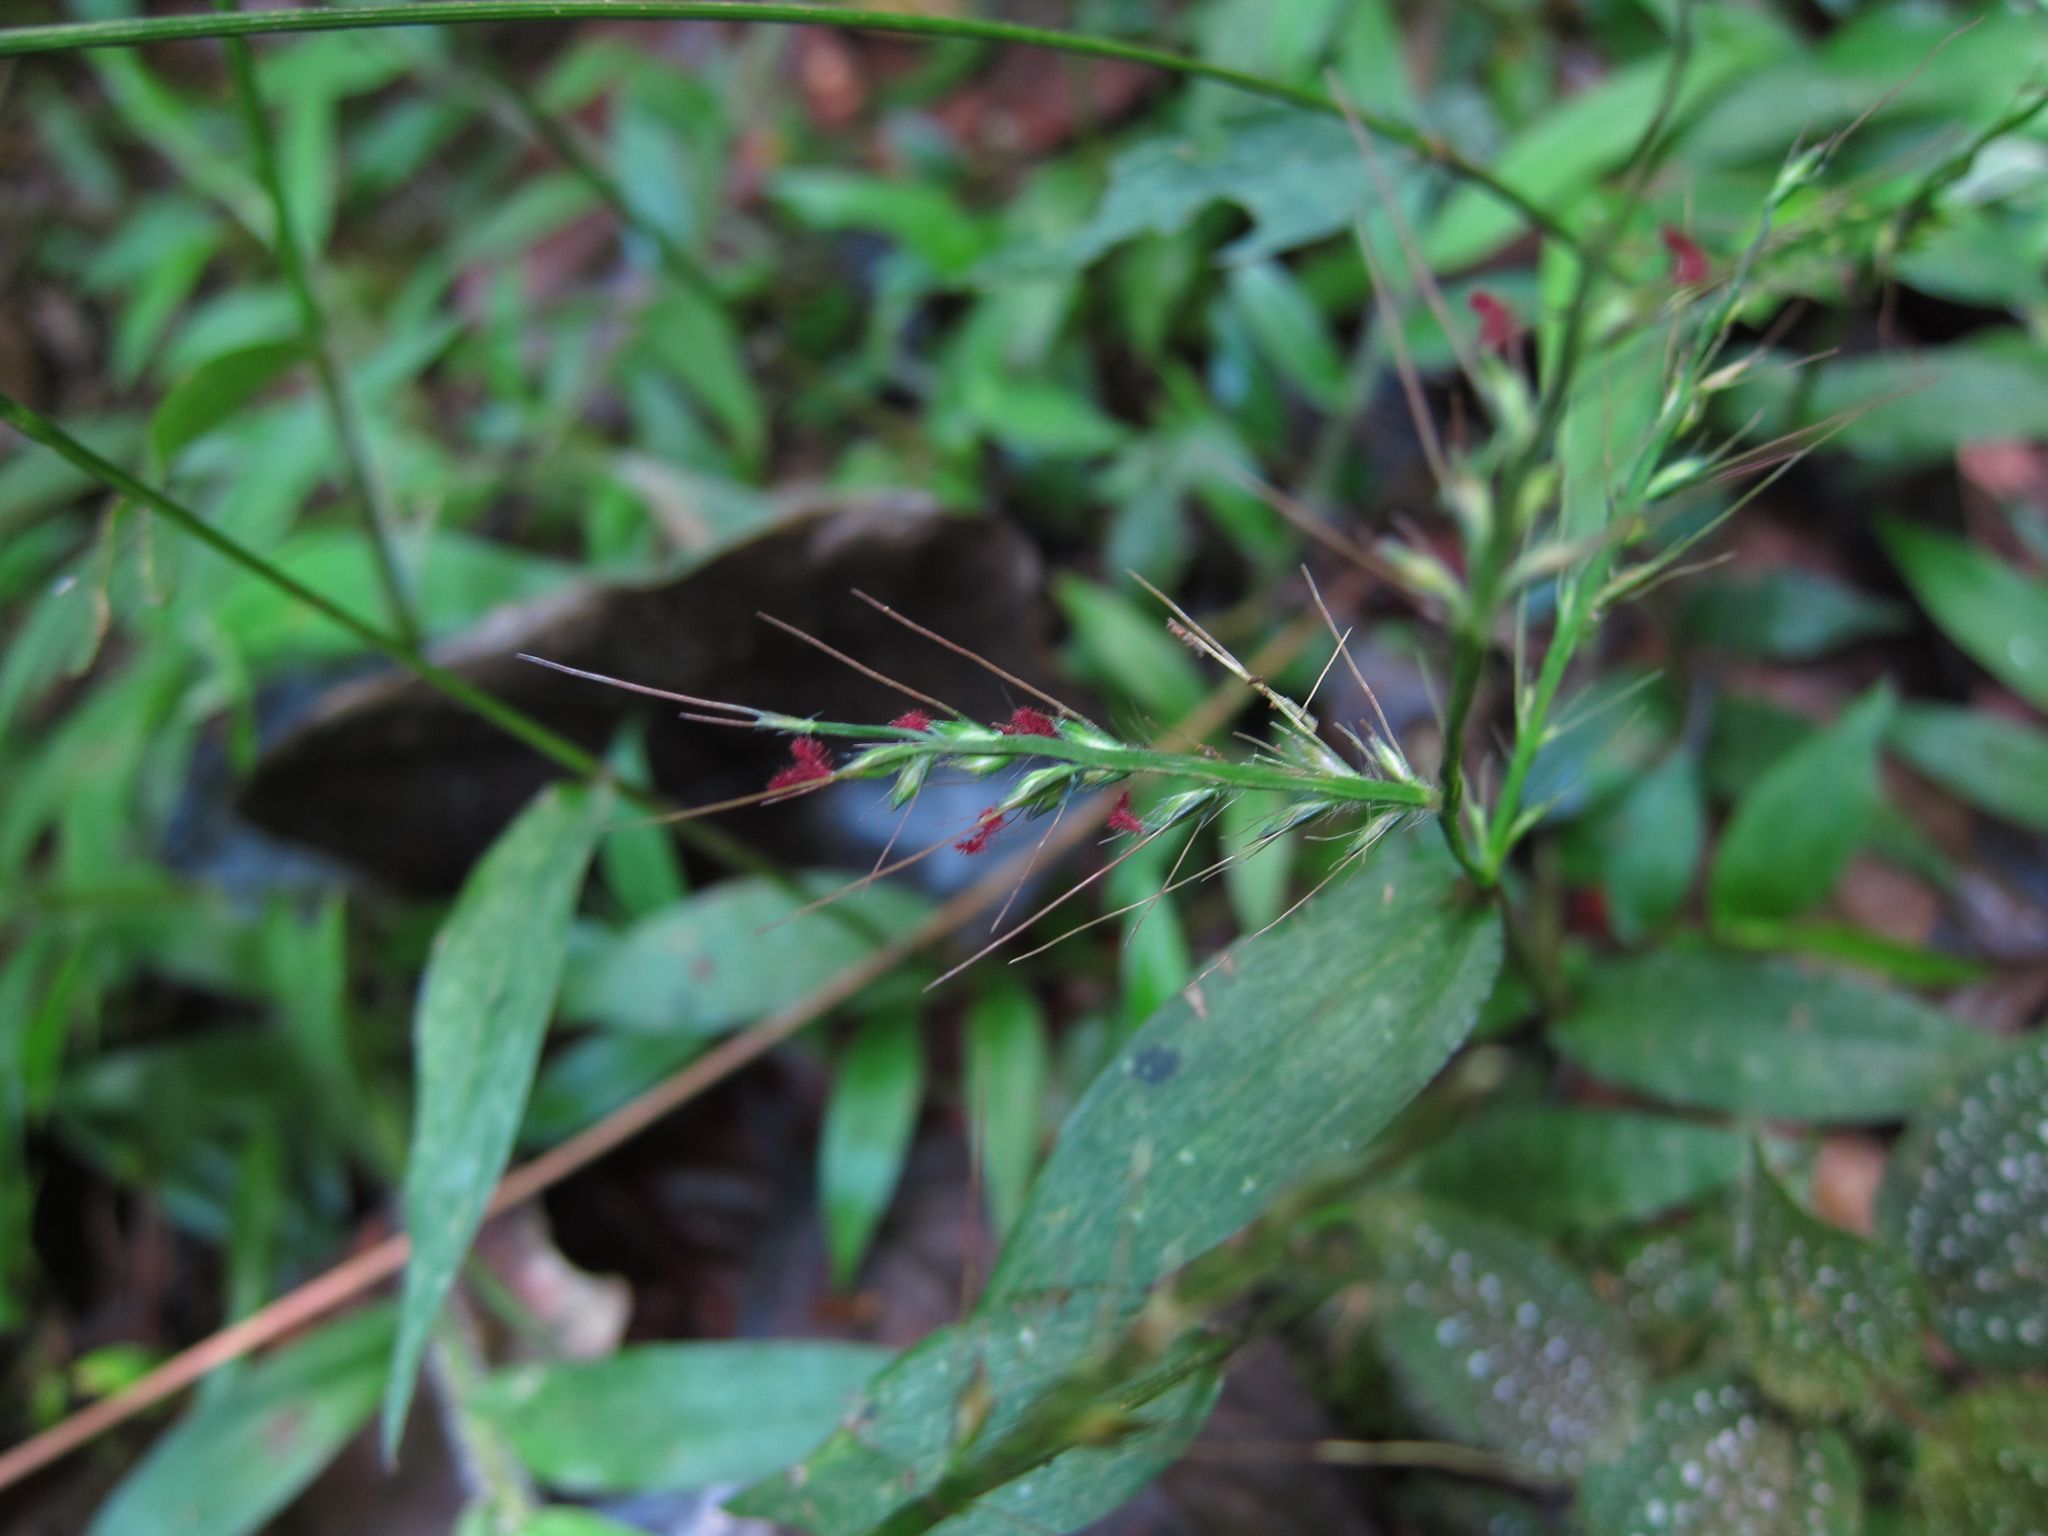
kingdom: Plantae
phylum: Tracheophyta
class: Liliopsida
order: Poales
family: Poaceae
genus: Oplismenus
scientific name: Oplismenus compositus
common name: Running mountain grass
